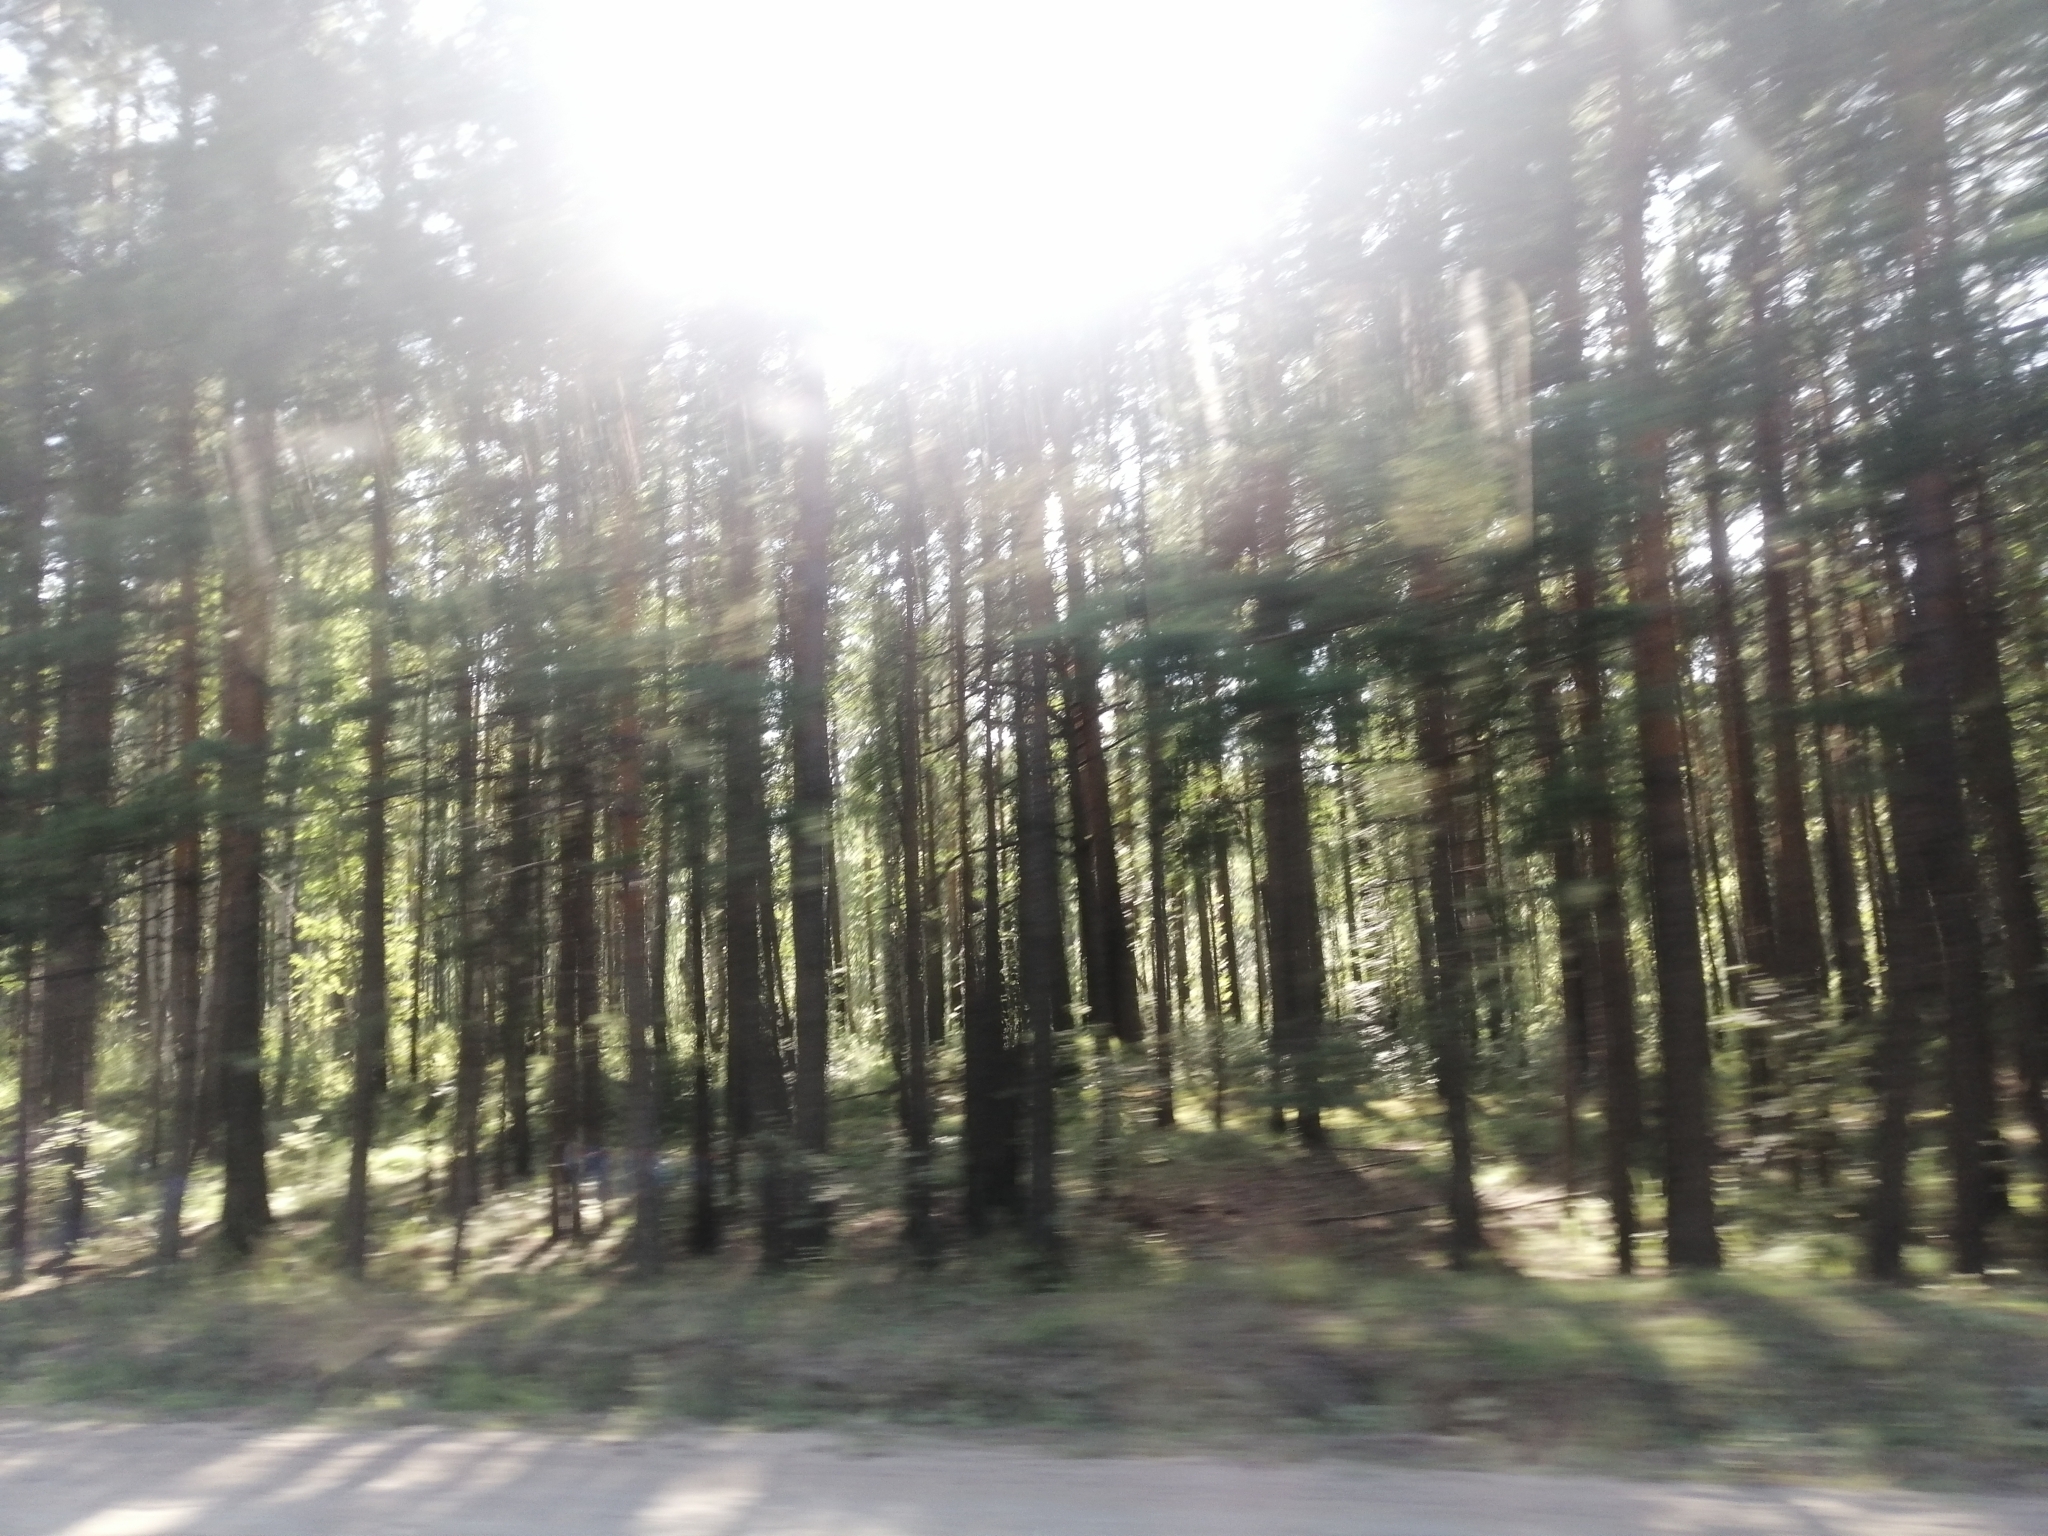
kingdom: Plantae
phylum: Tracheophyta
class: Pinopsida
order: Pinales
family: Pinaceae
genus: Pinus
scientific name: Pinus sylvestris
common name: Scots pine
